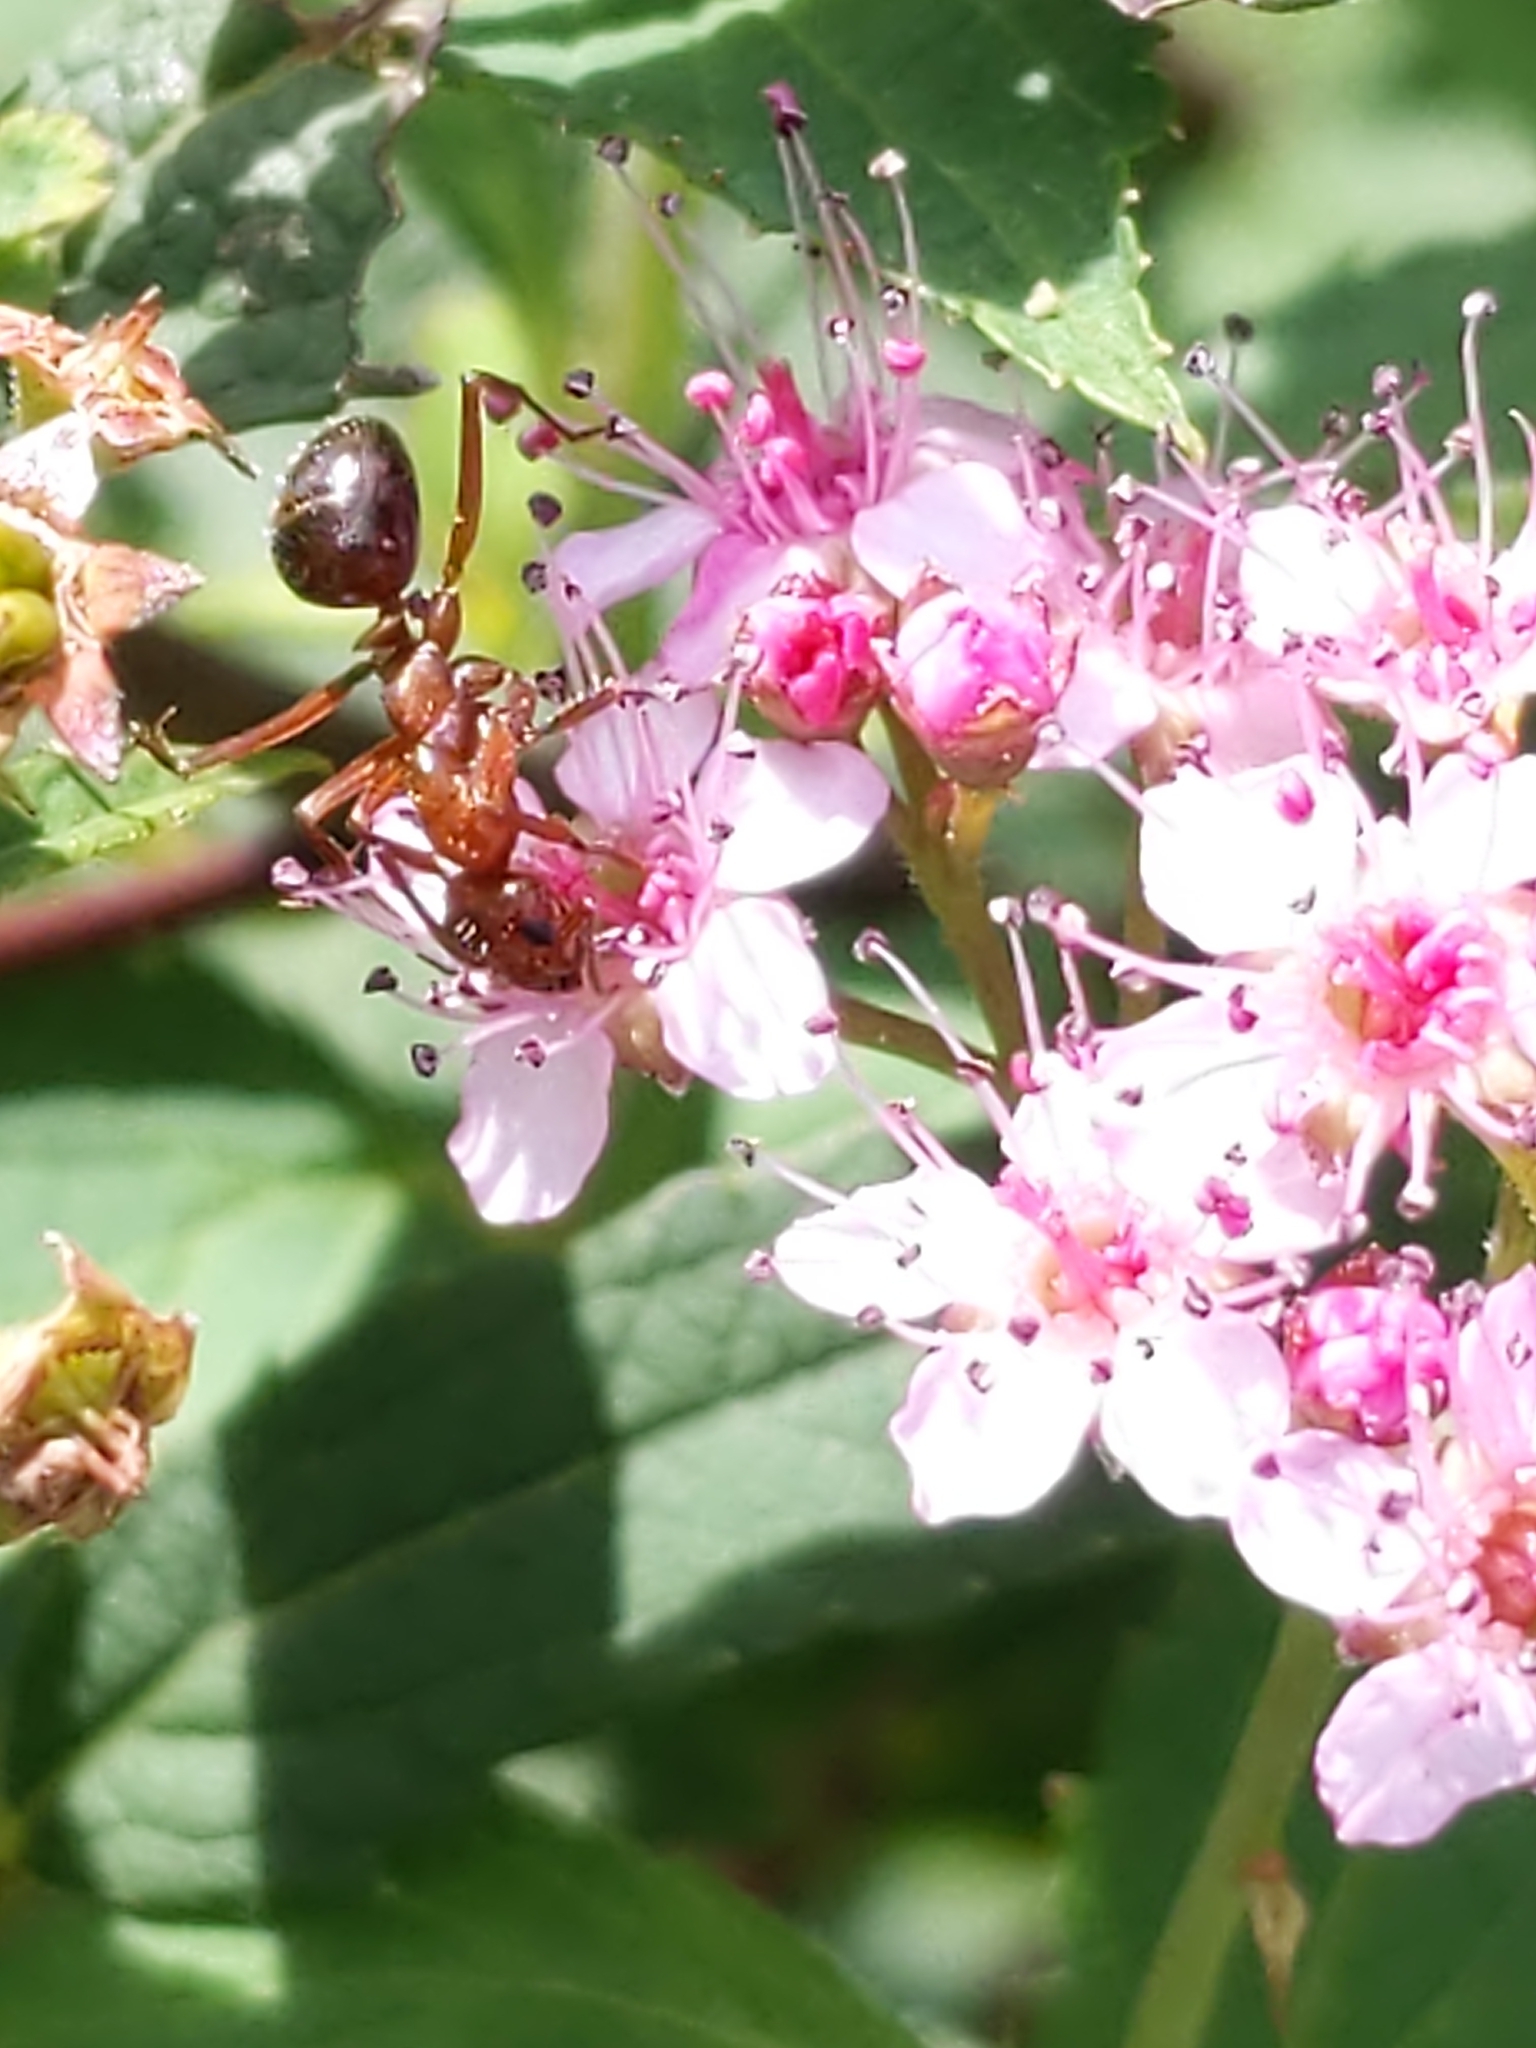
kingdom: Animalia
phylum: Arthropoda
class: Insecta
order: Hymenoptera
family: Formicidae
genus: Formica
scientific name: Formica
